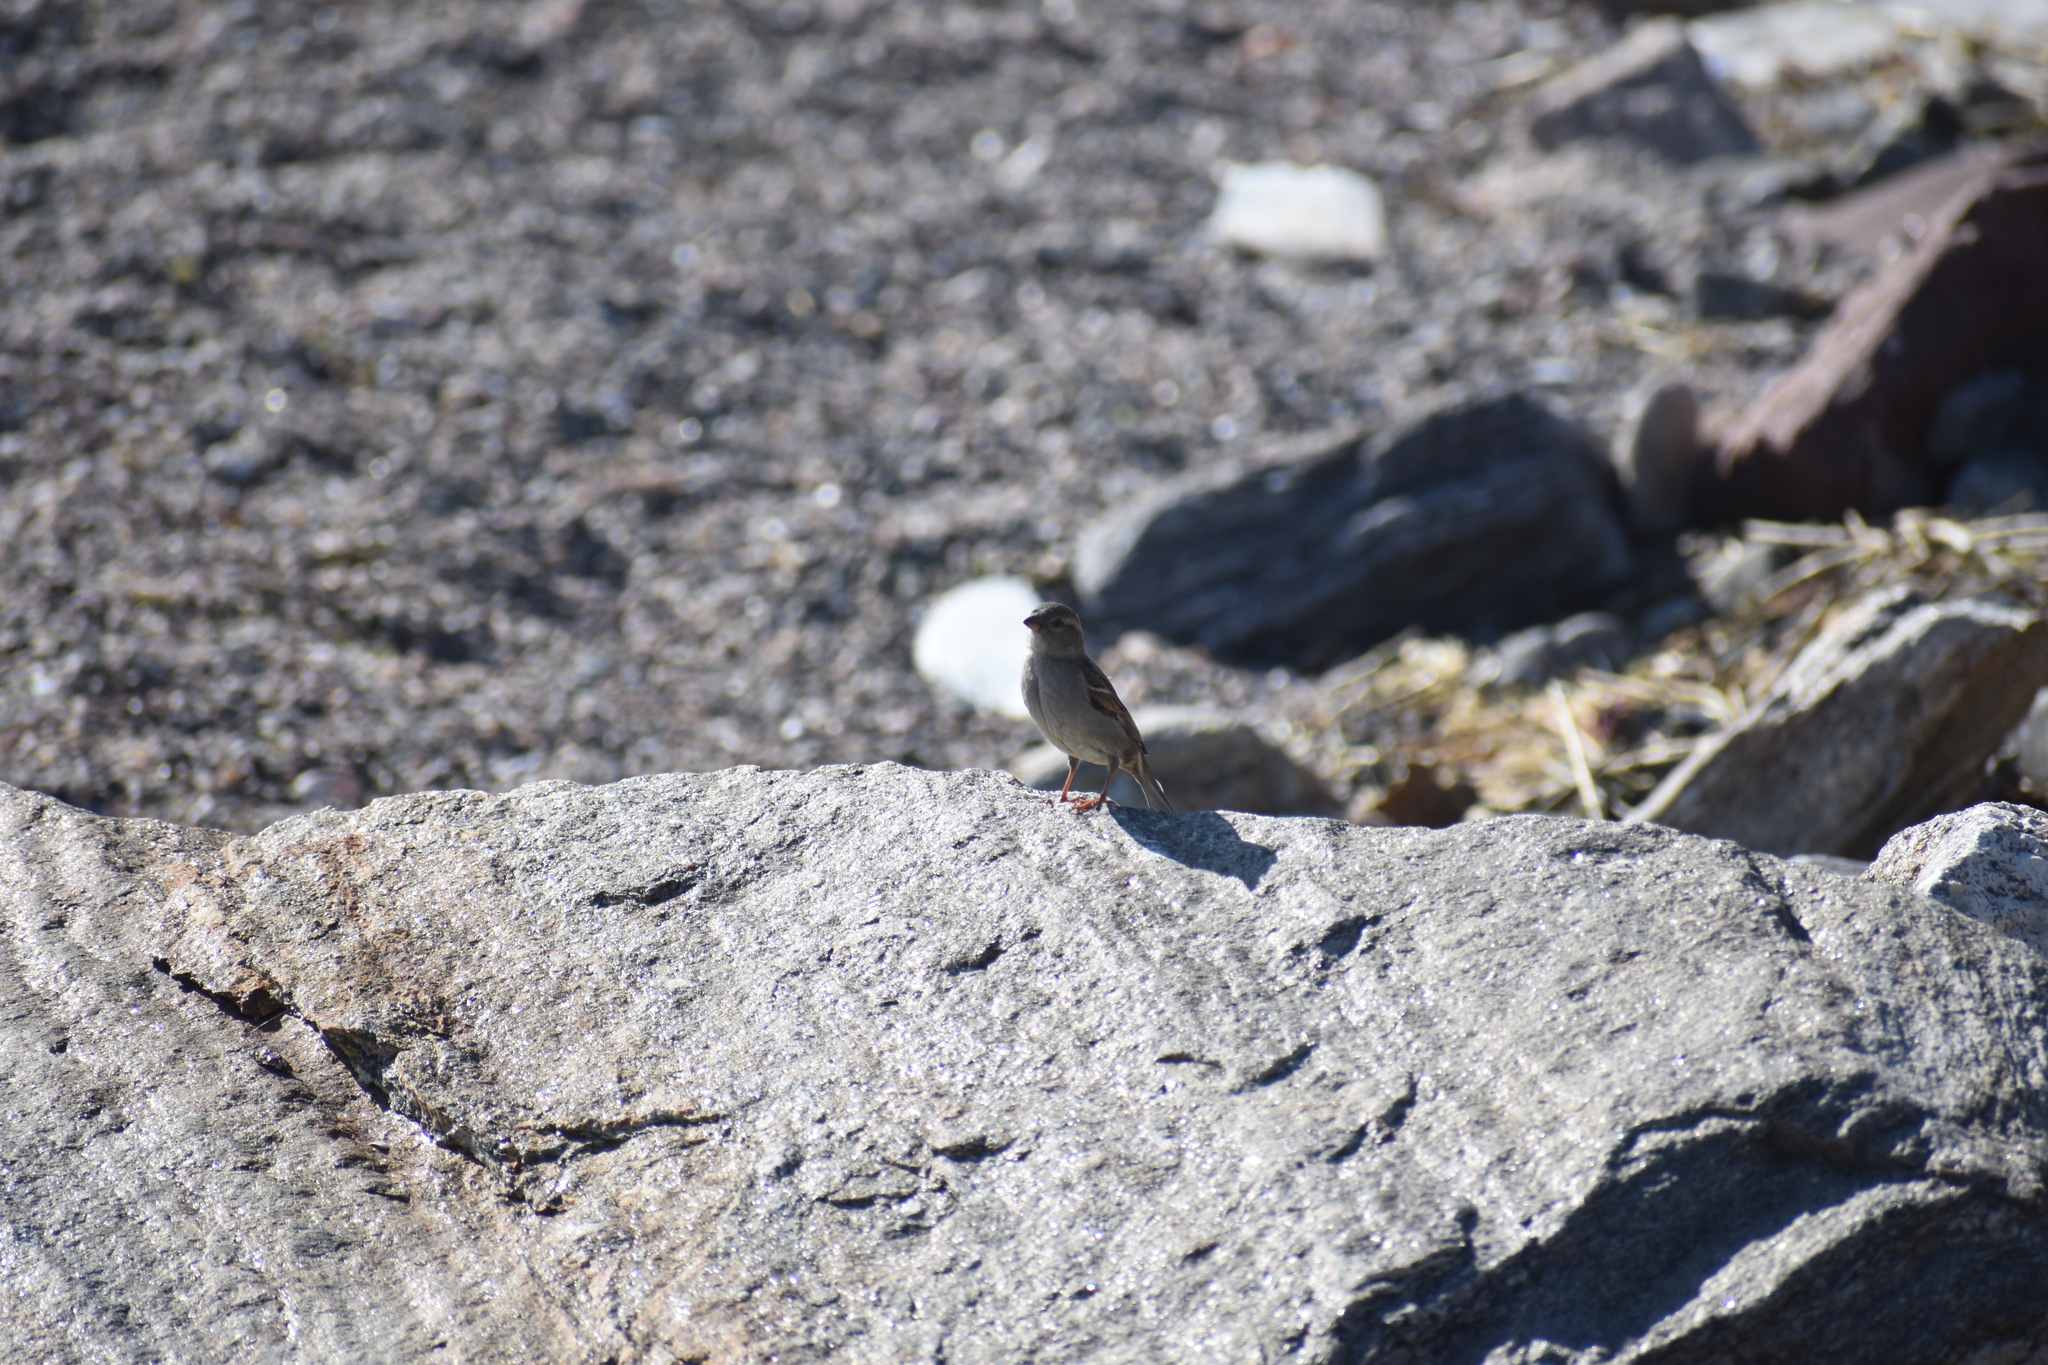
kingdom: Animalia
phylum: Chordata
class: Aves
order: Passeriformes
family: Passeridae
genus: Passer
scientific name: Passer domesticus
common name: House sparrow
